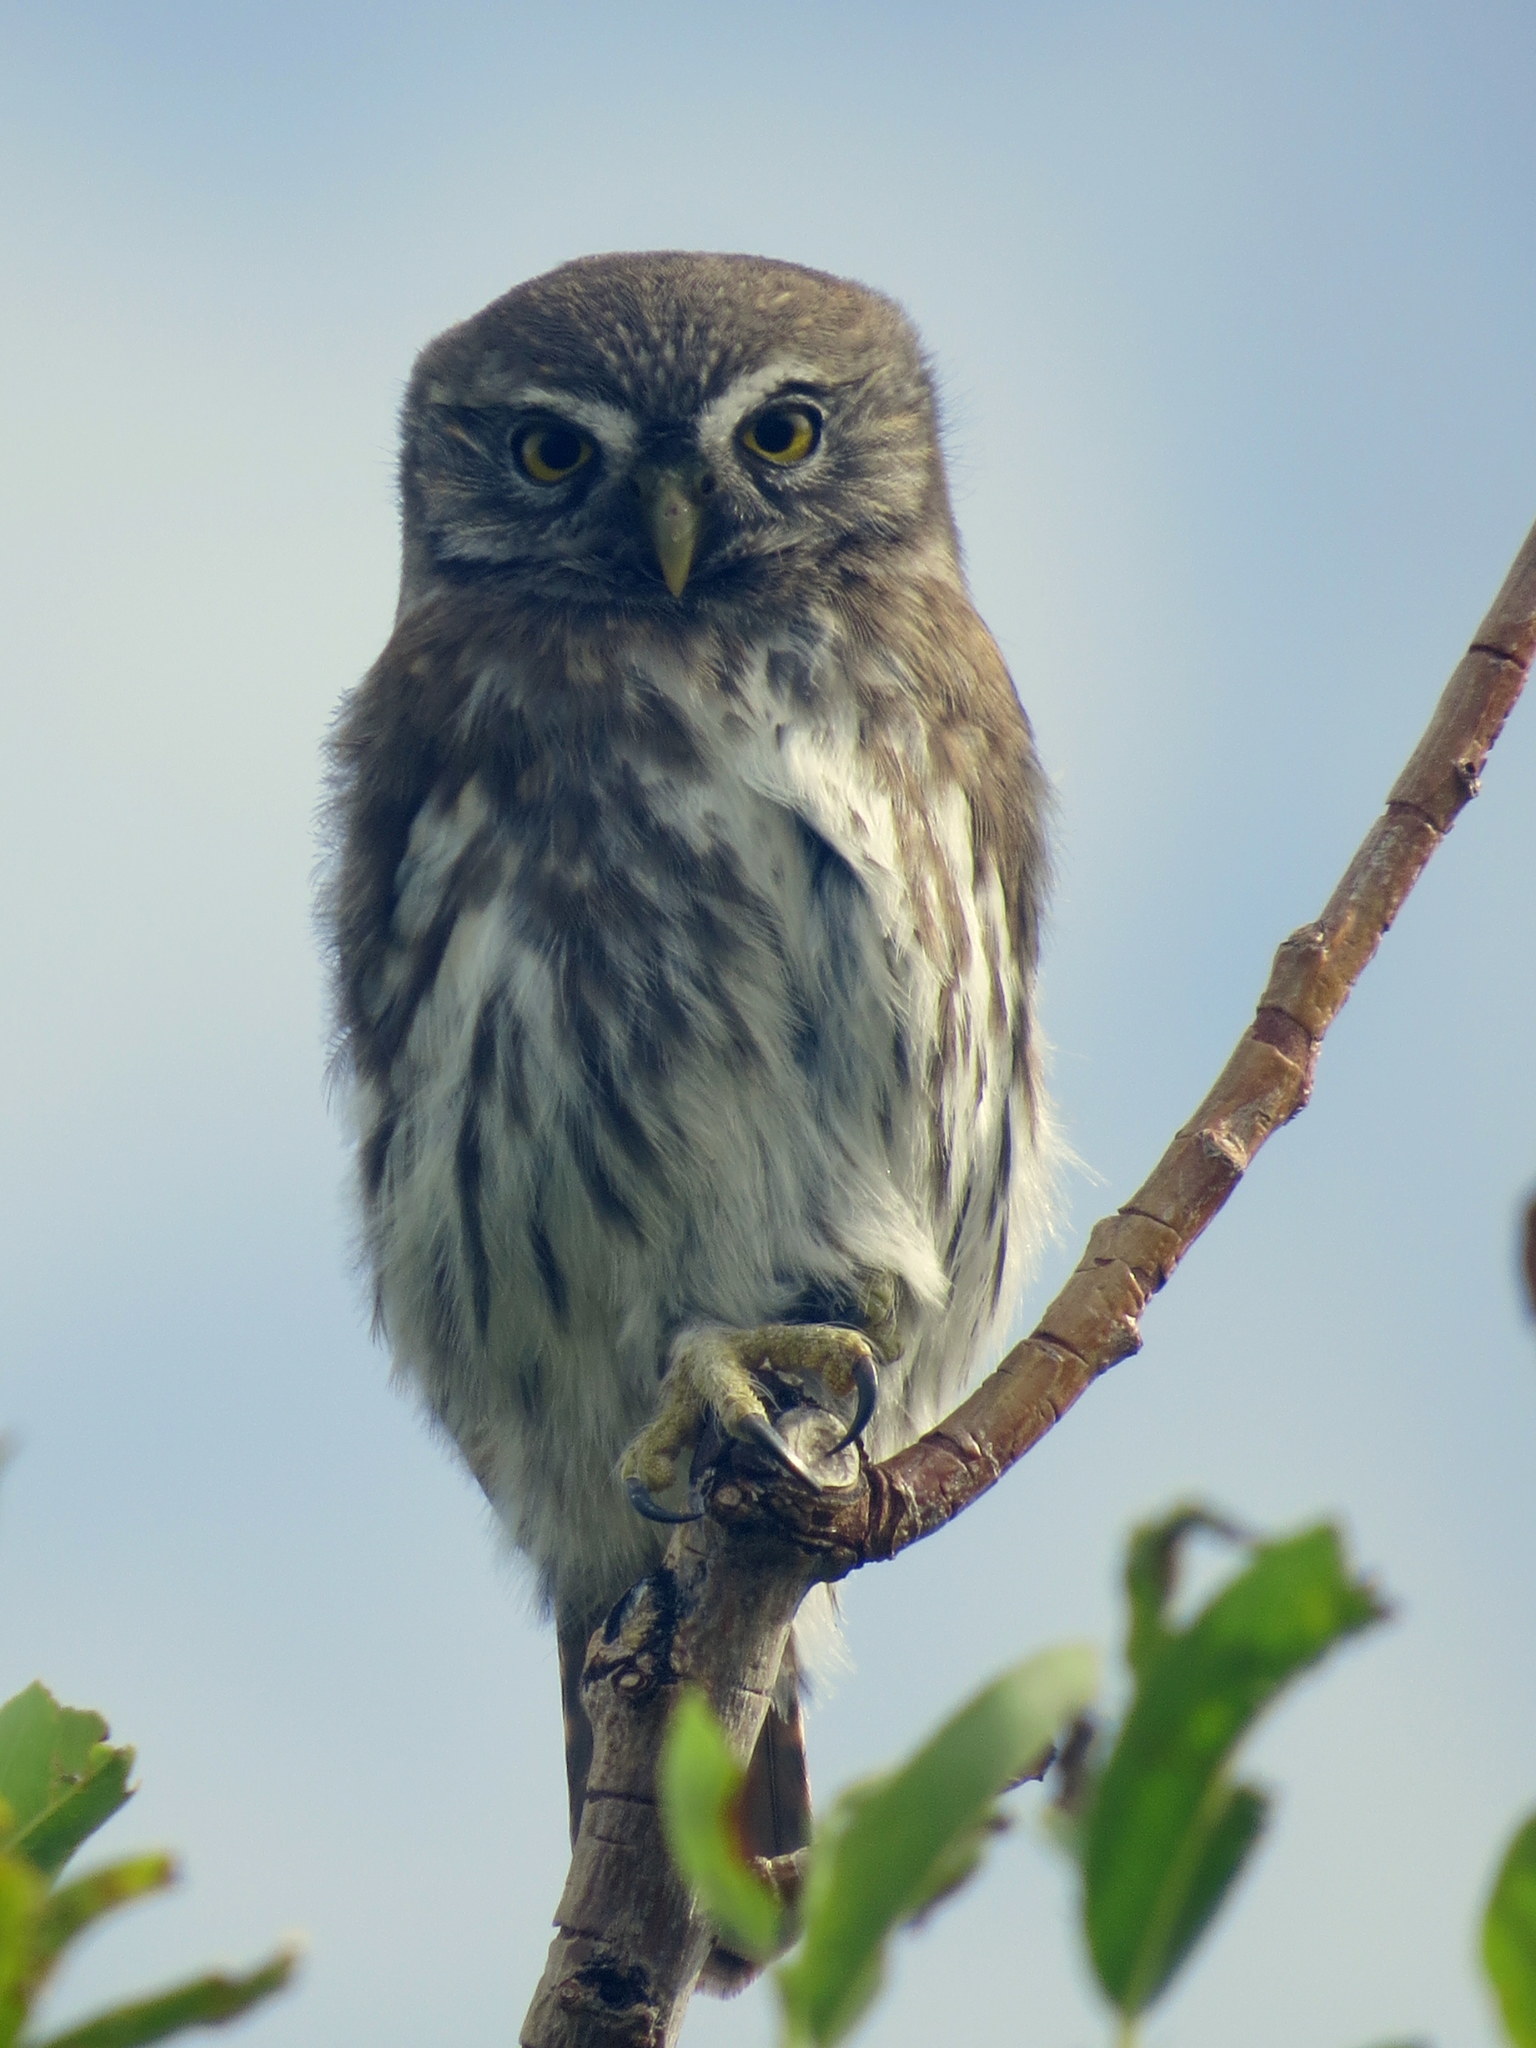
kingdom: Animalia
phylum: Chordata
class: Aves
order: Strigiformes
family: Strigidae
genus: Glaucidium
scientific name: Glaucidium nana
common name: Austral pygmy-owl
